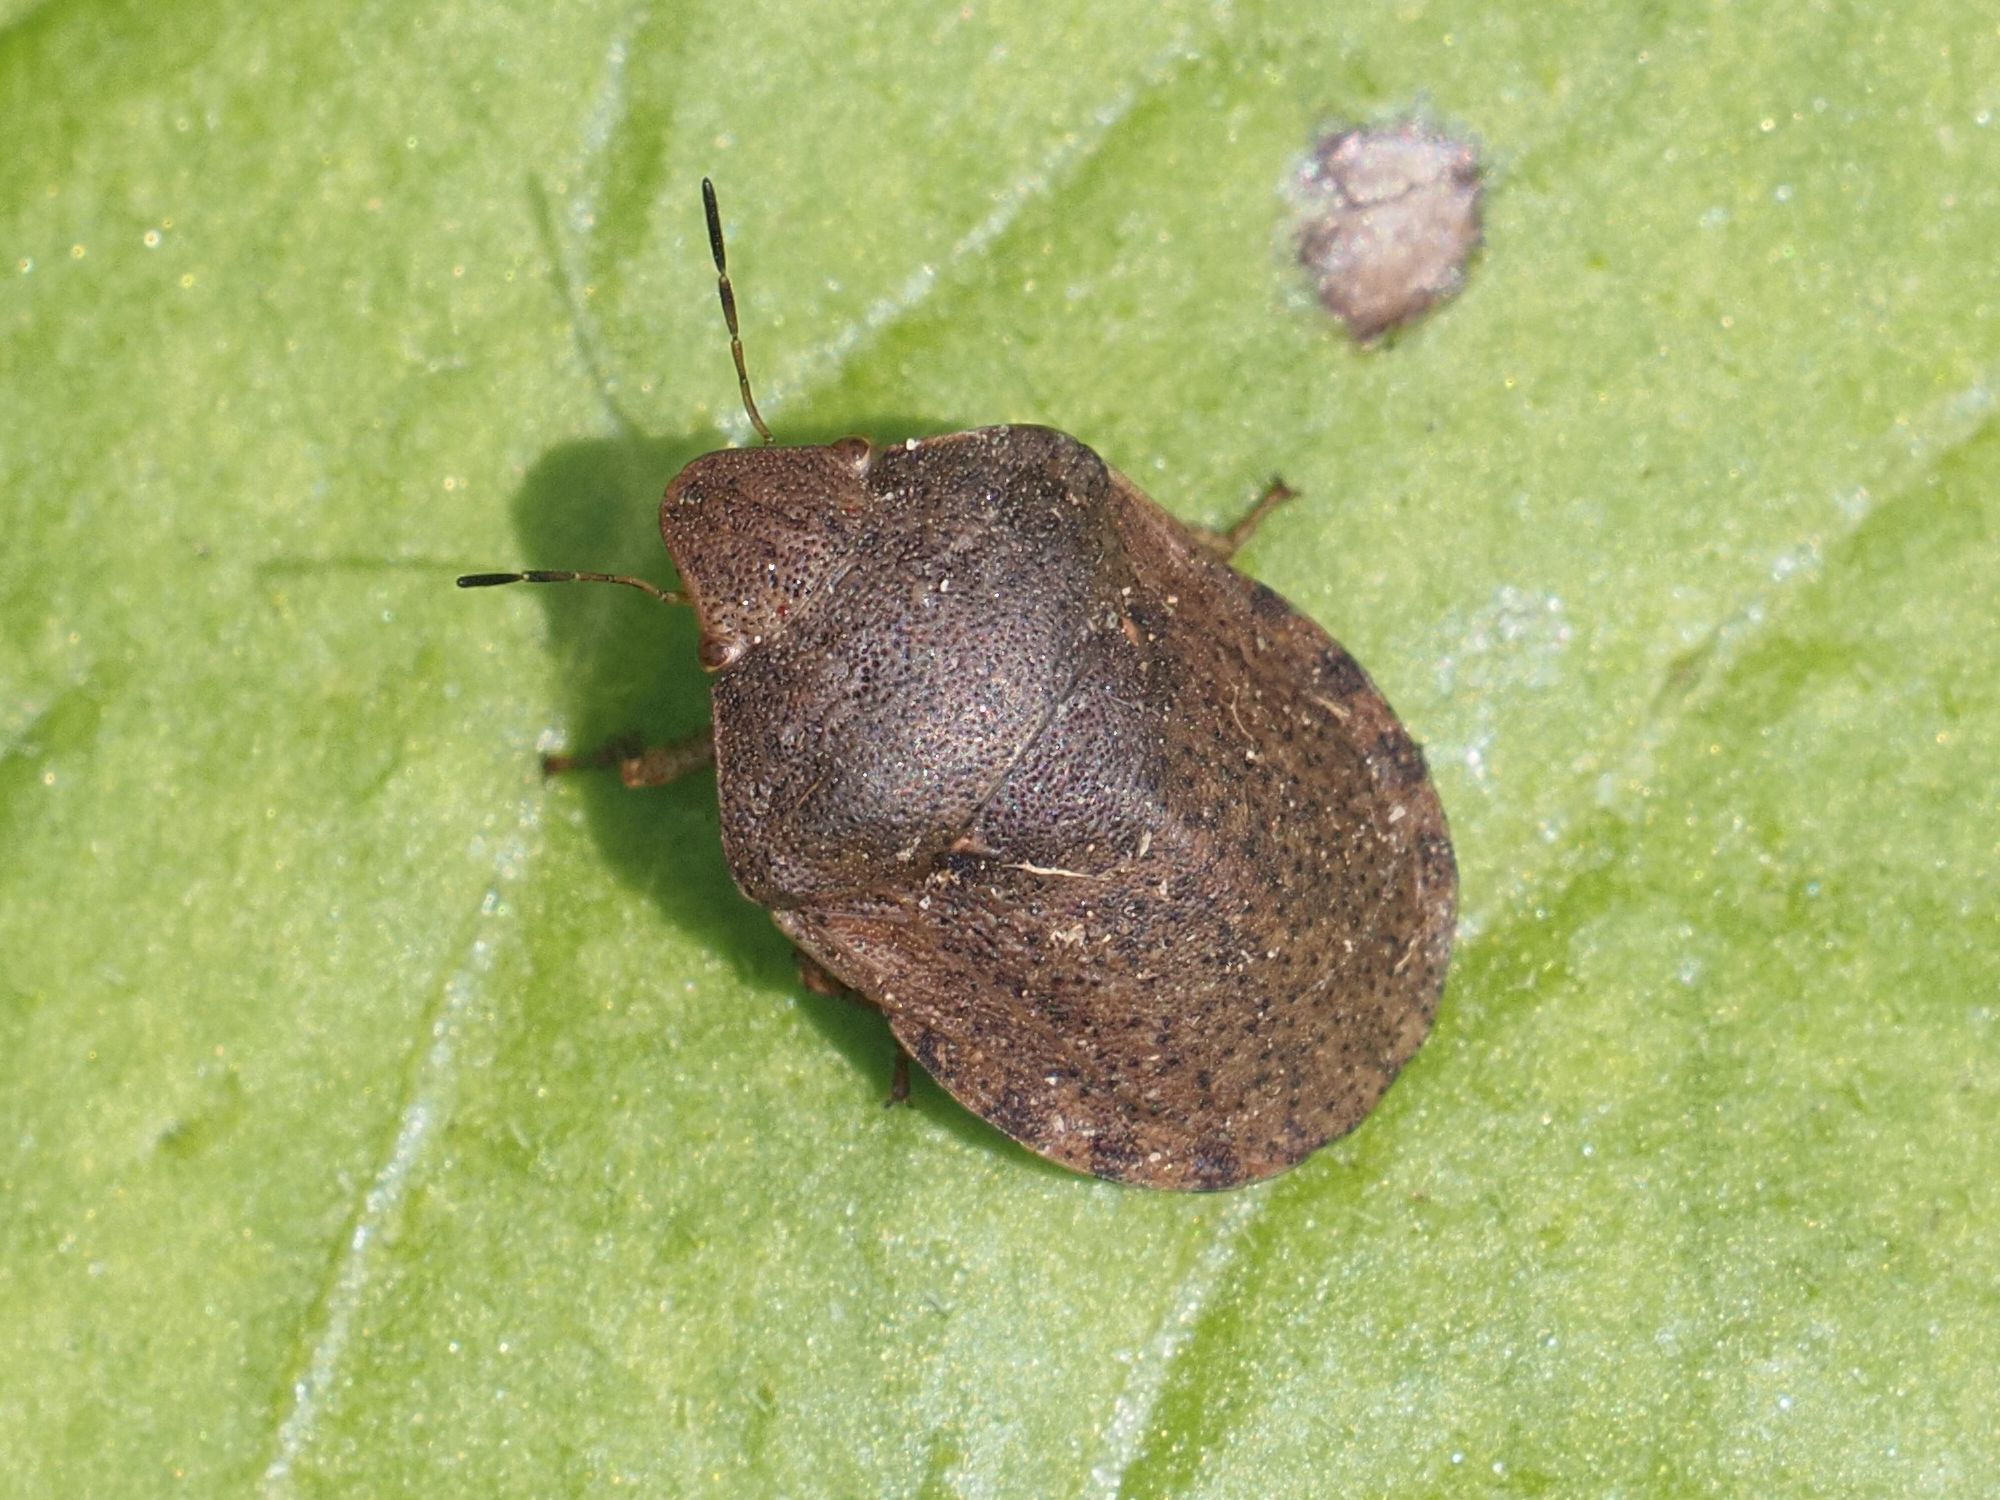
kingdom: Animalia
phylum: Arthropoda
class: Insecta
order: Hemiptera
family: Scutelleridae
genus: Eurygaster
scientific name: Eurygaster maura
